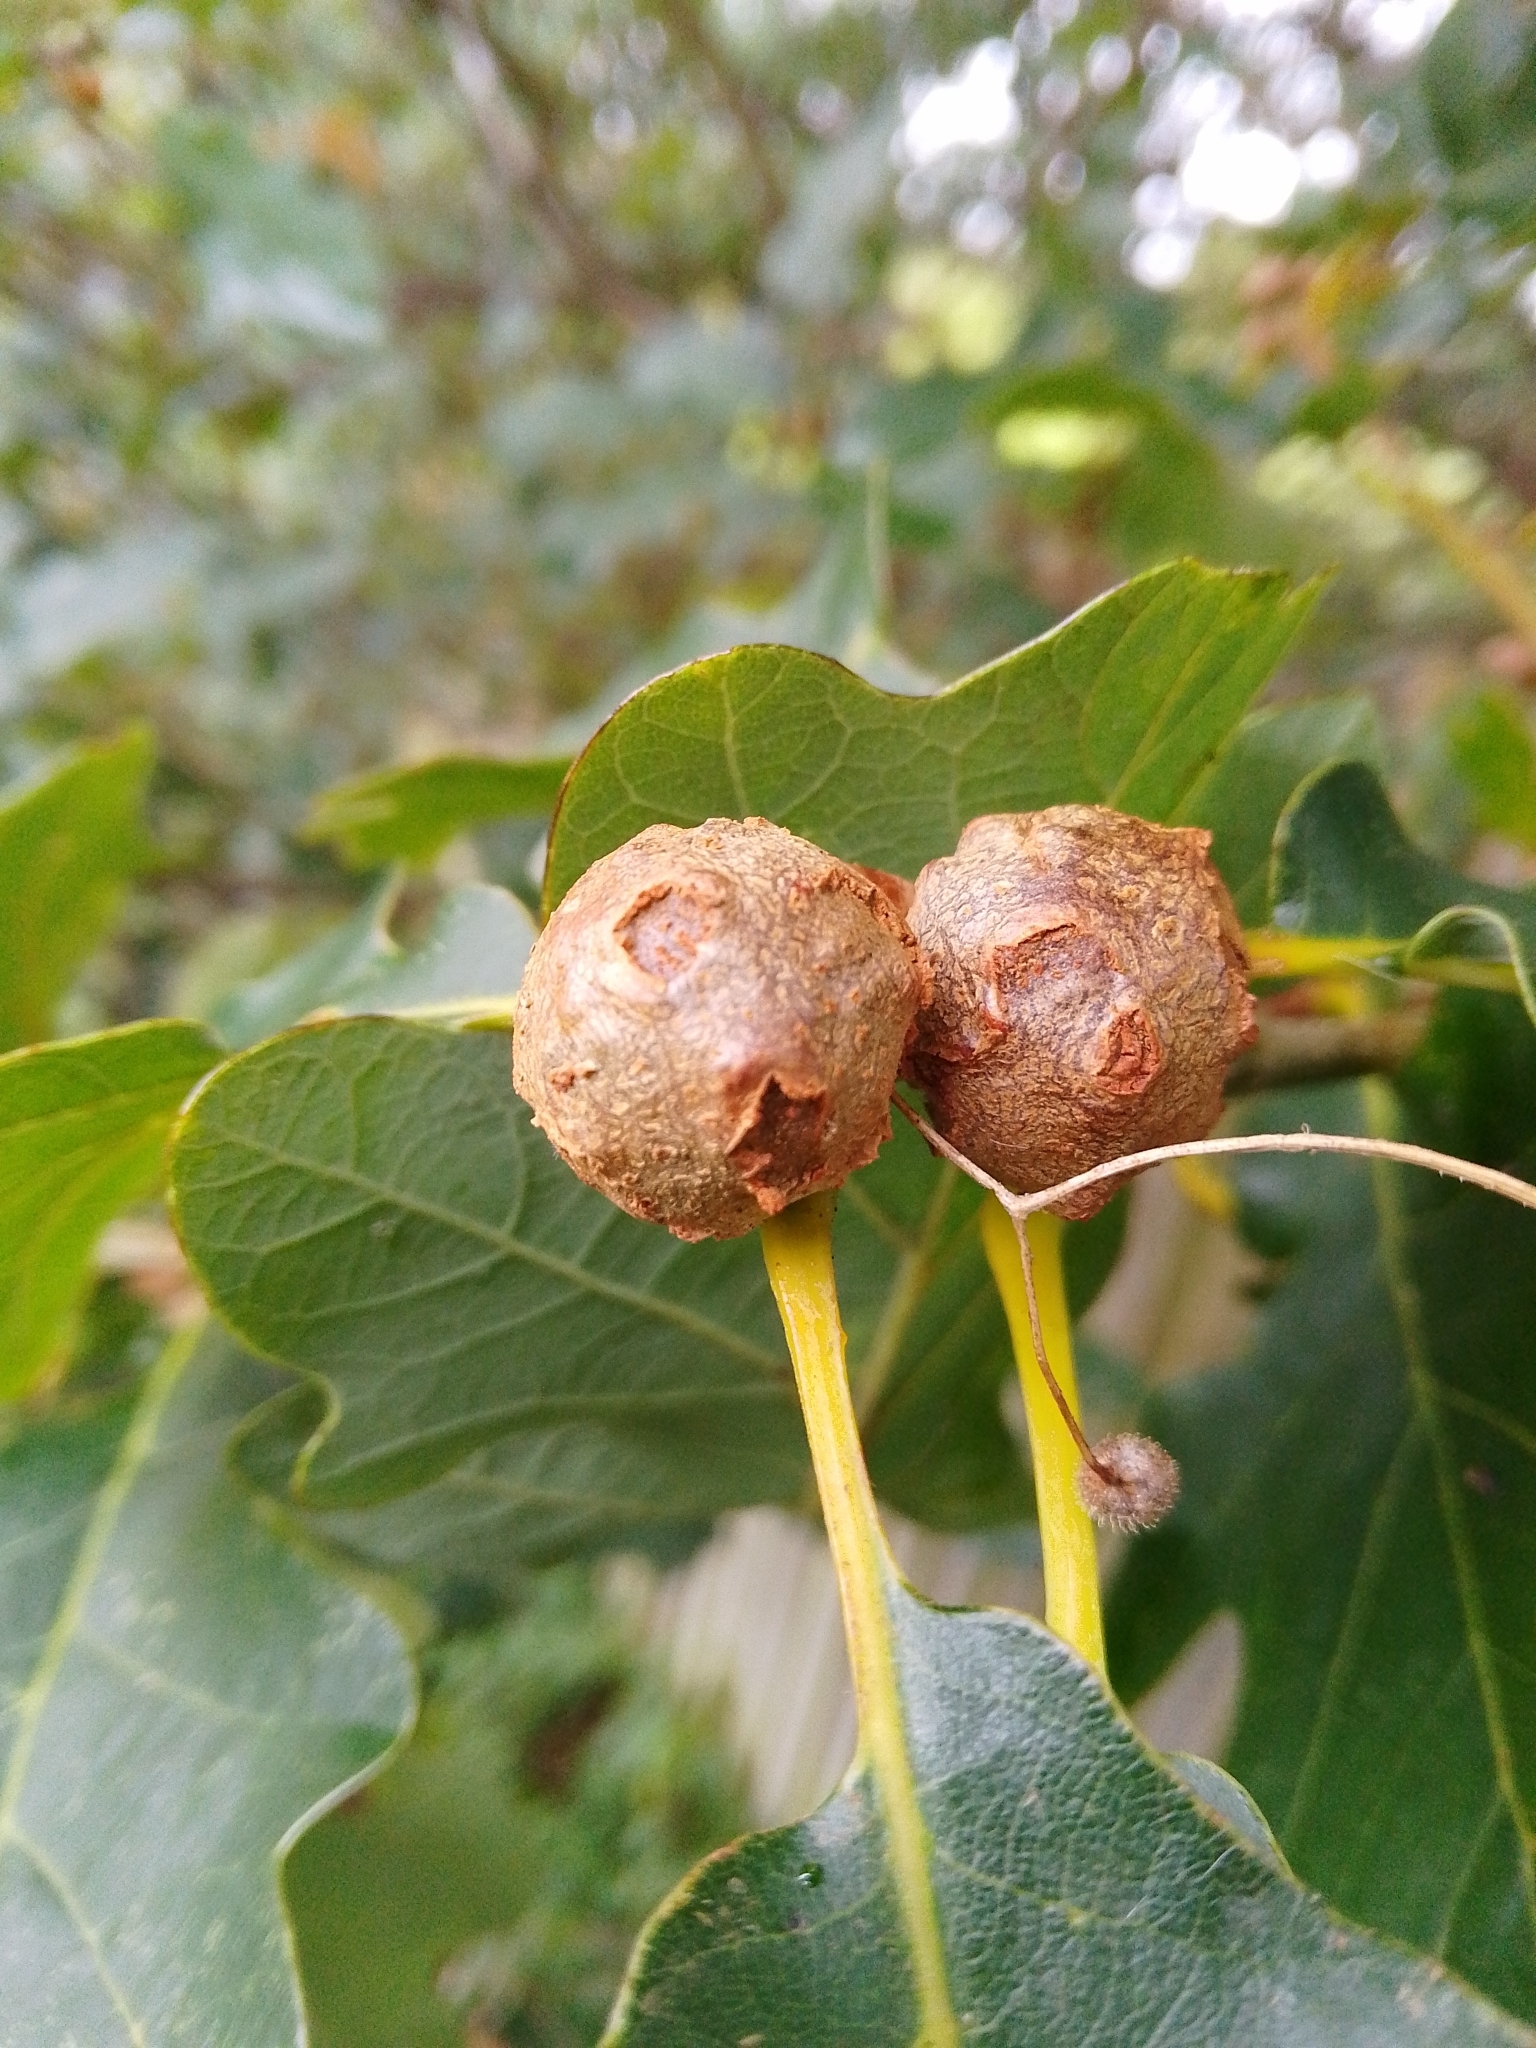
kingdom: Animalia
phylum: Arthropoda
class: Insecta
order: Hymenoptera
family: Cynipidae
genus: Andricus
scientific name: Andricus lignicolus
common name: Cola-nut gall
